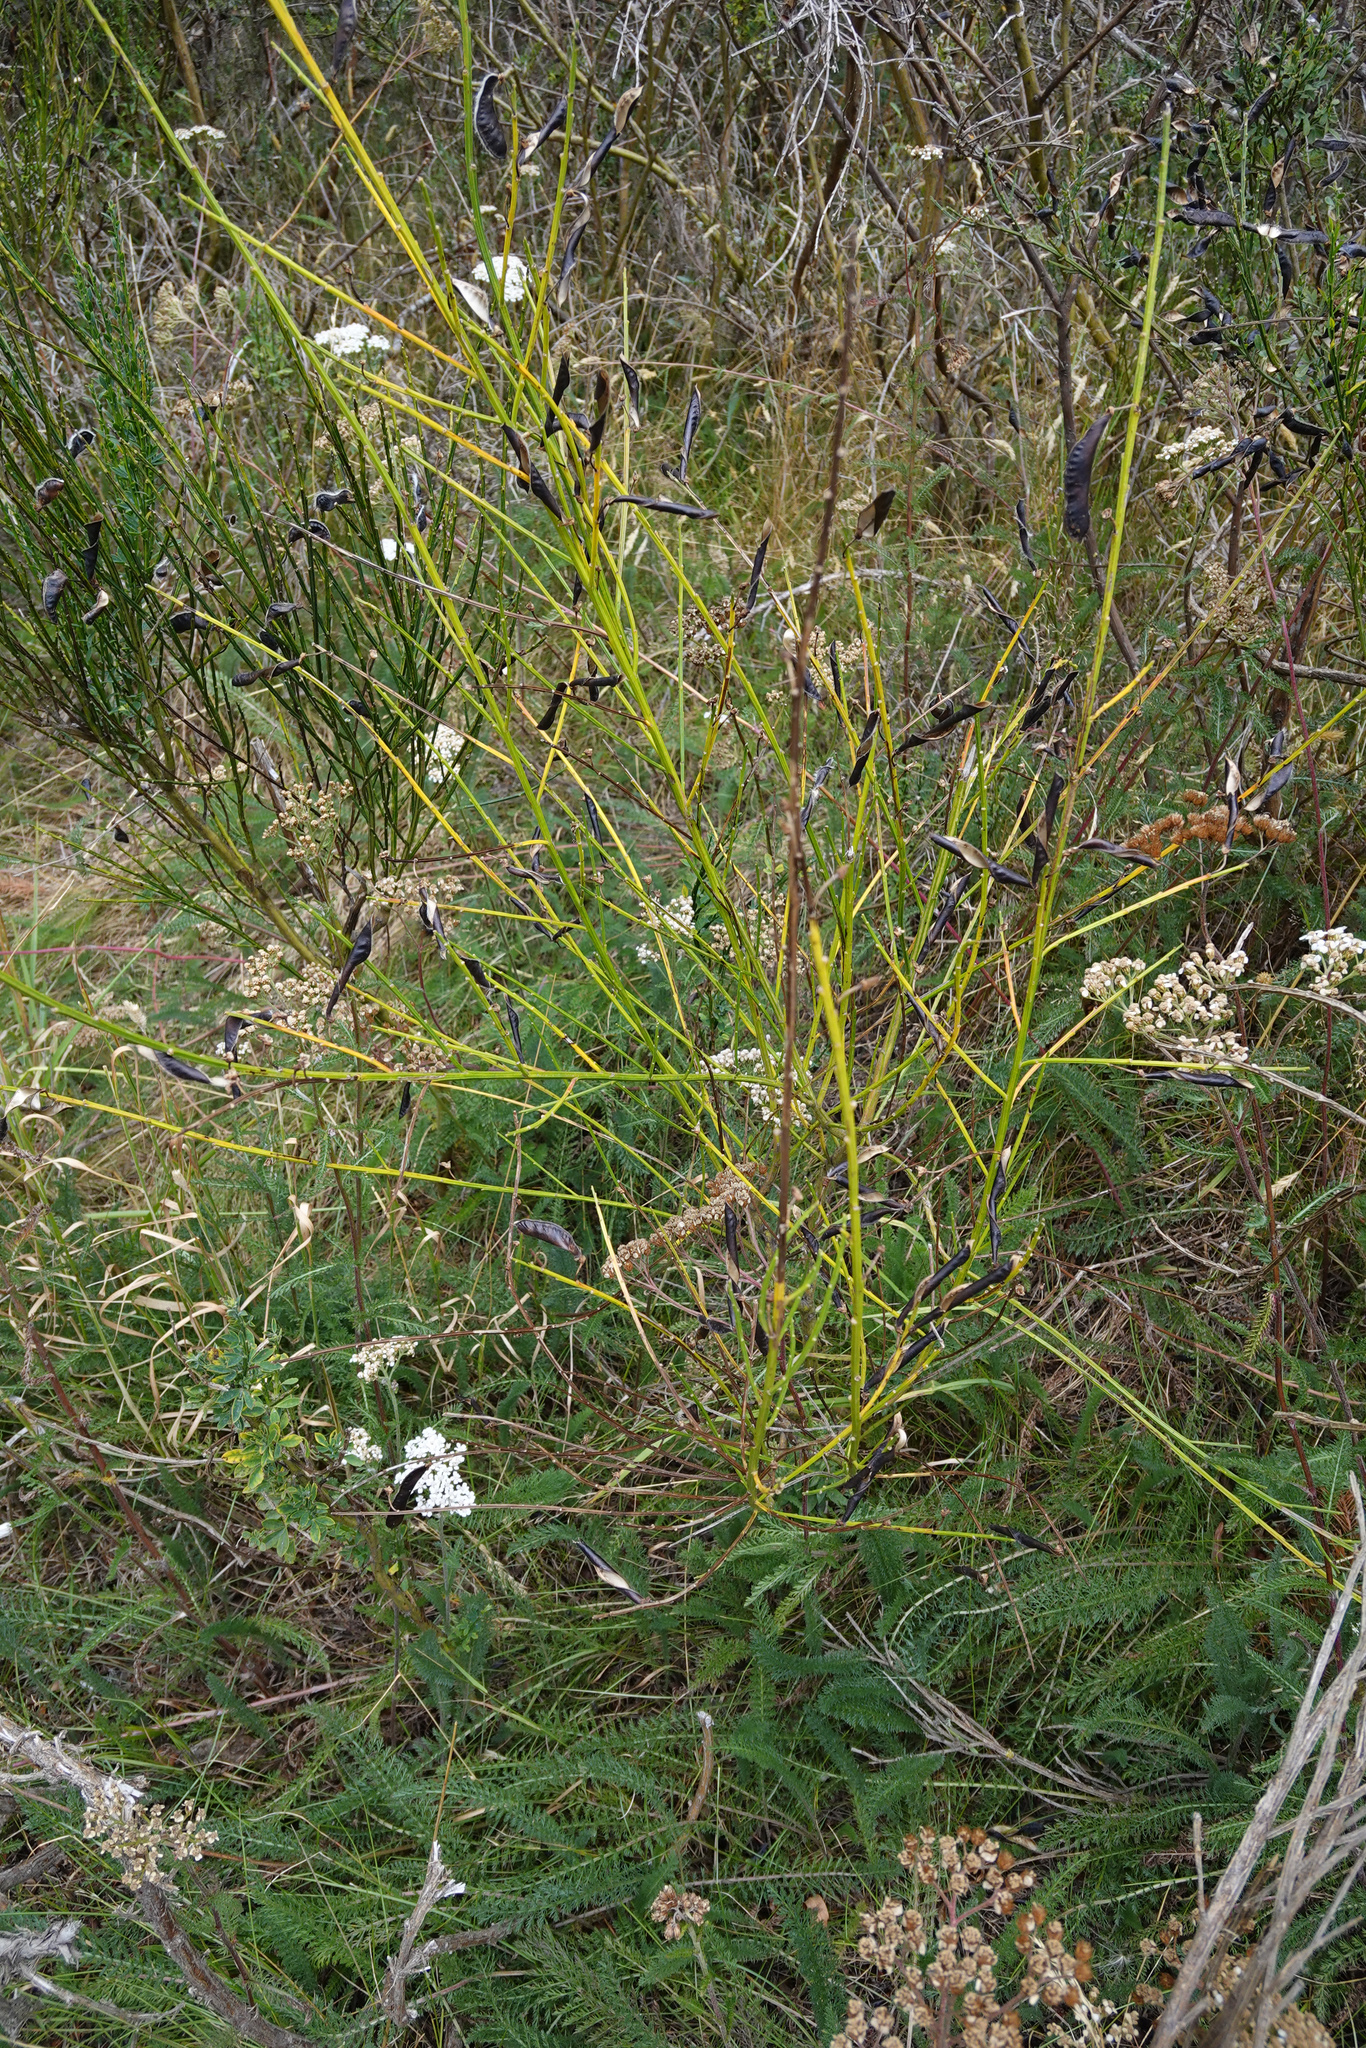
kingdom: Plantae
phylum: Tracheophyta
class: Magnoliopsida
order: Fabales
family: Fabaceae
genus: Cytisus
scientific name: Cytisus scoparius
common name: Scotch broom
